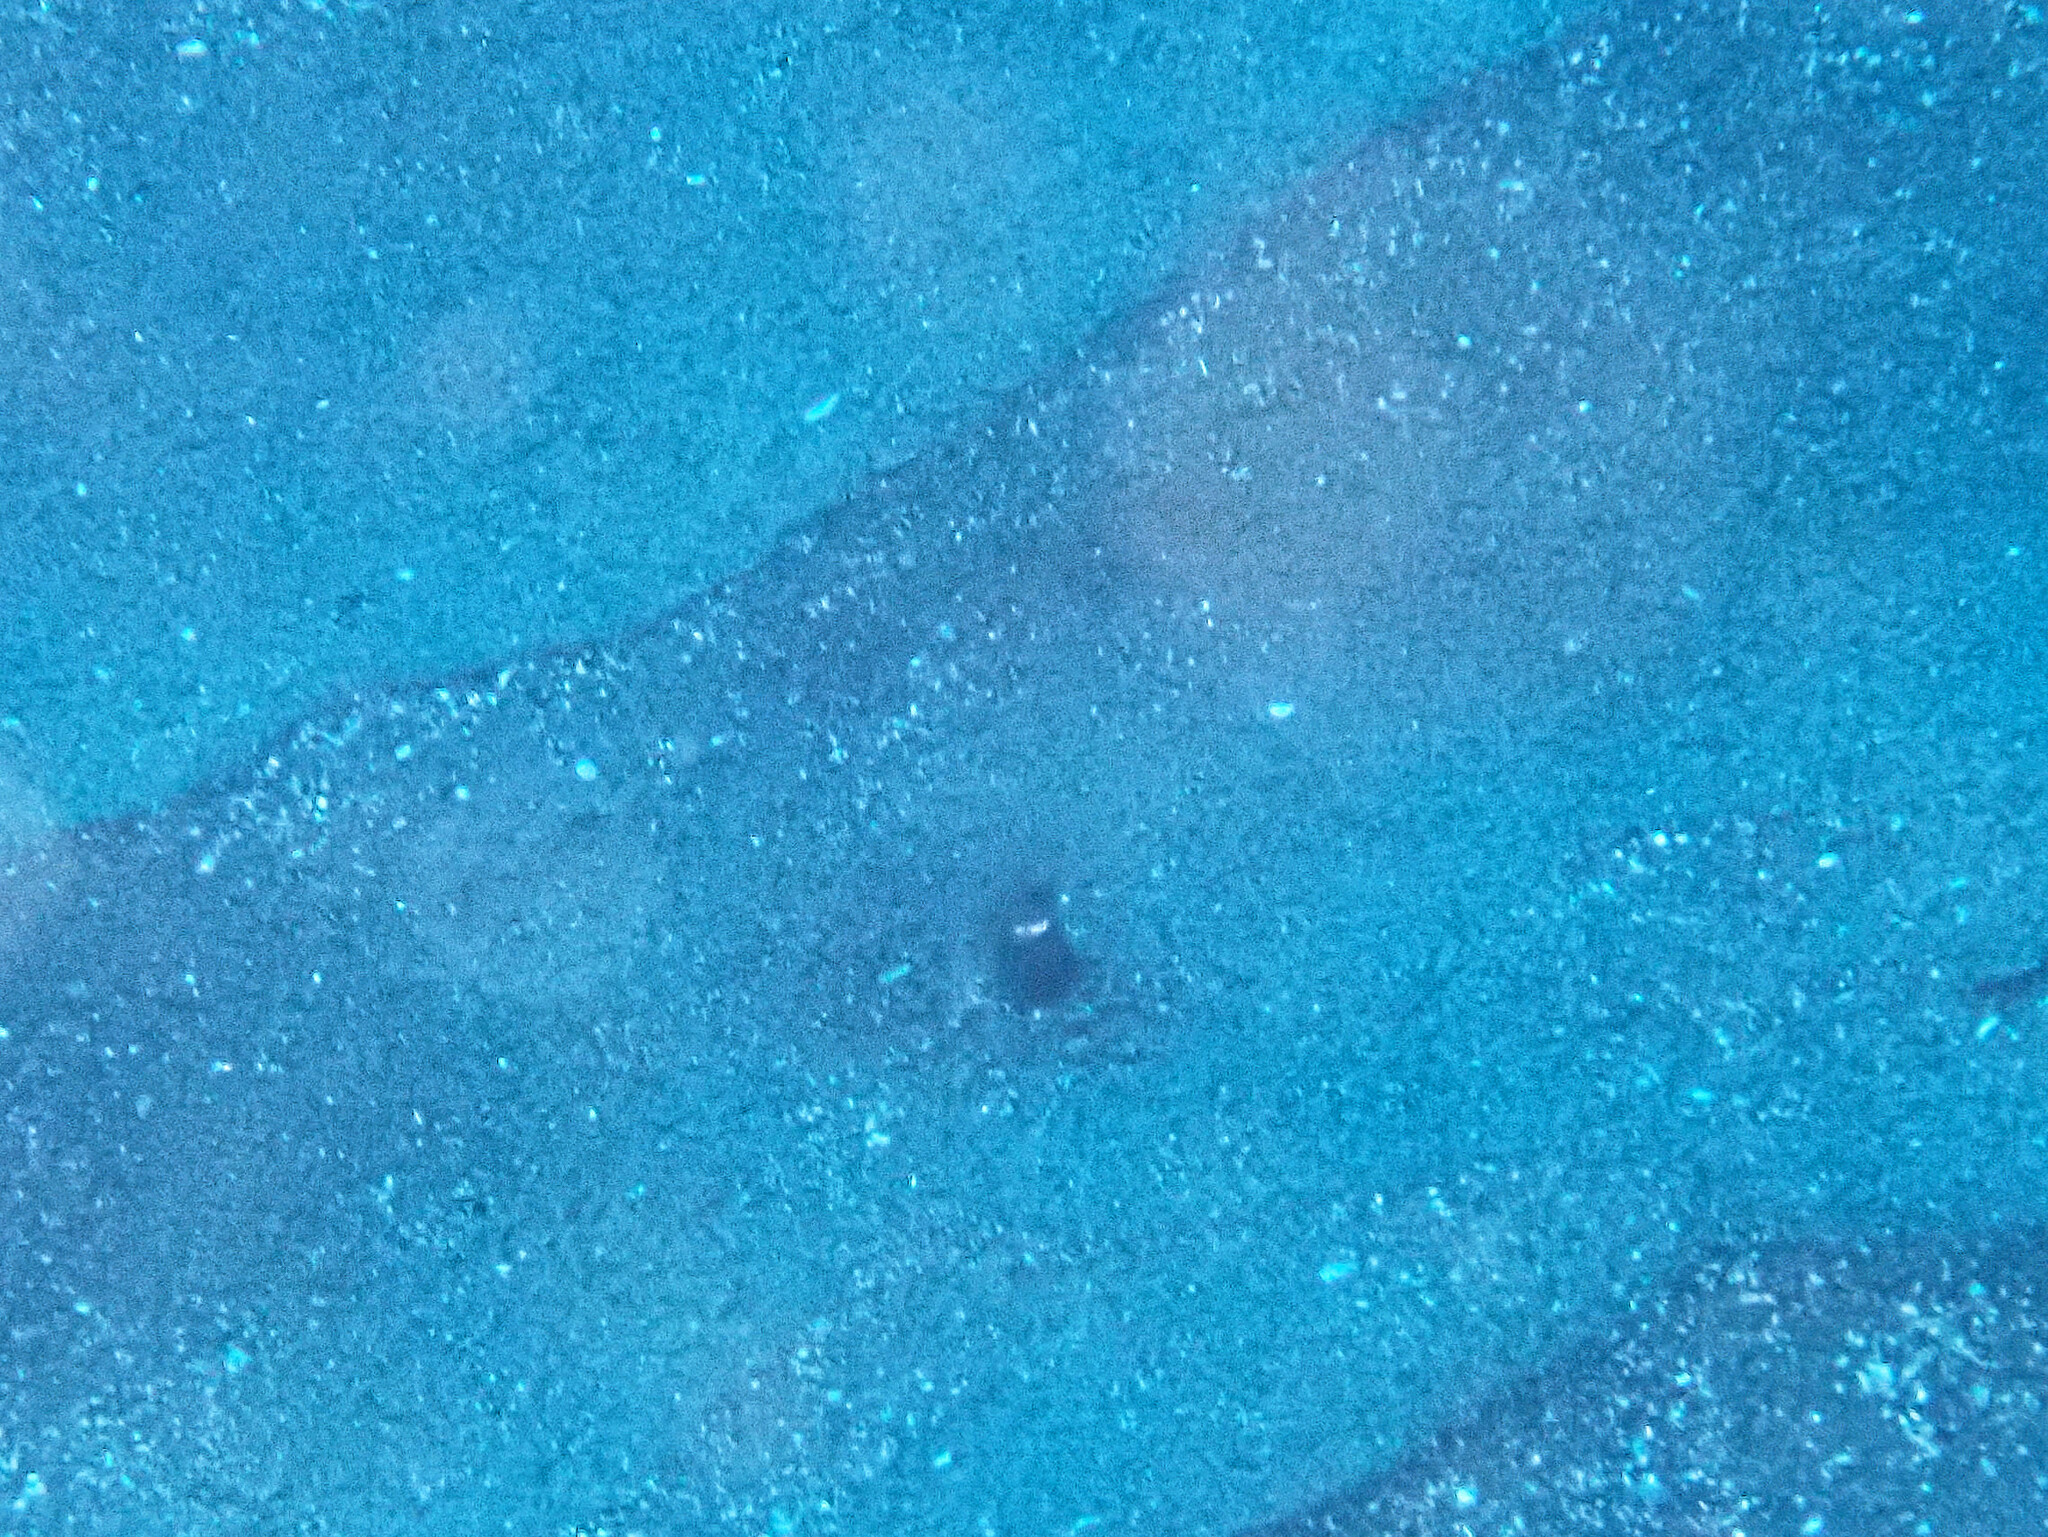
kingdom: Animalia
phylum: Chordata
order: Anguilliformes
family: Congridae
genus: Heteroconger
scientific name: Heteroconger longissimus
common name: Garden eel
